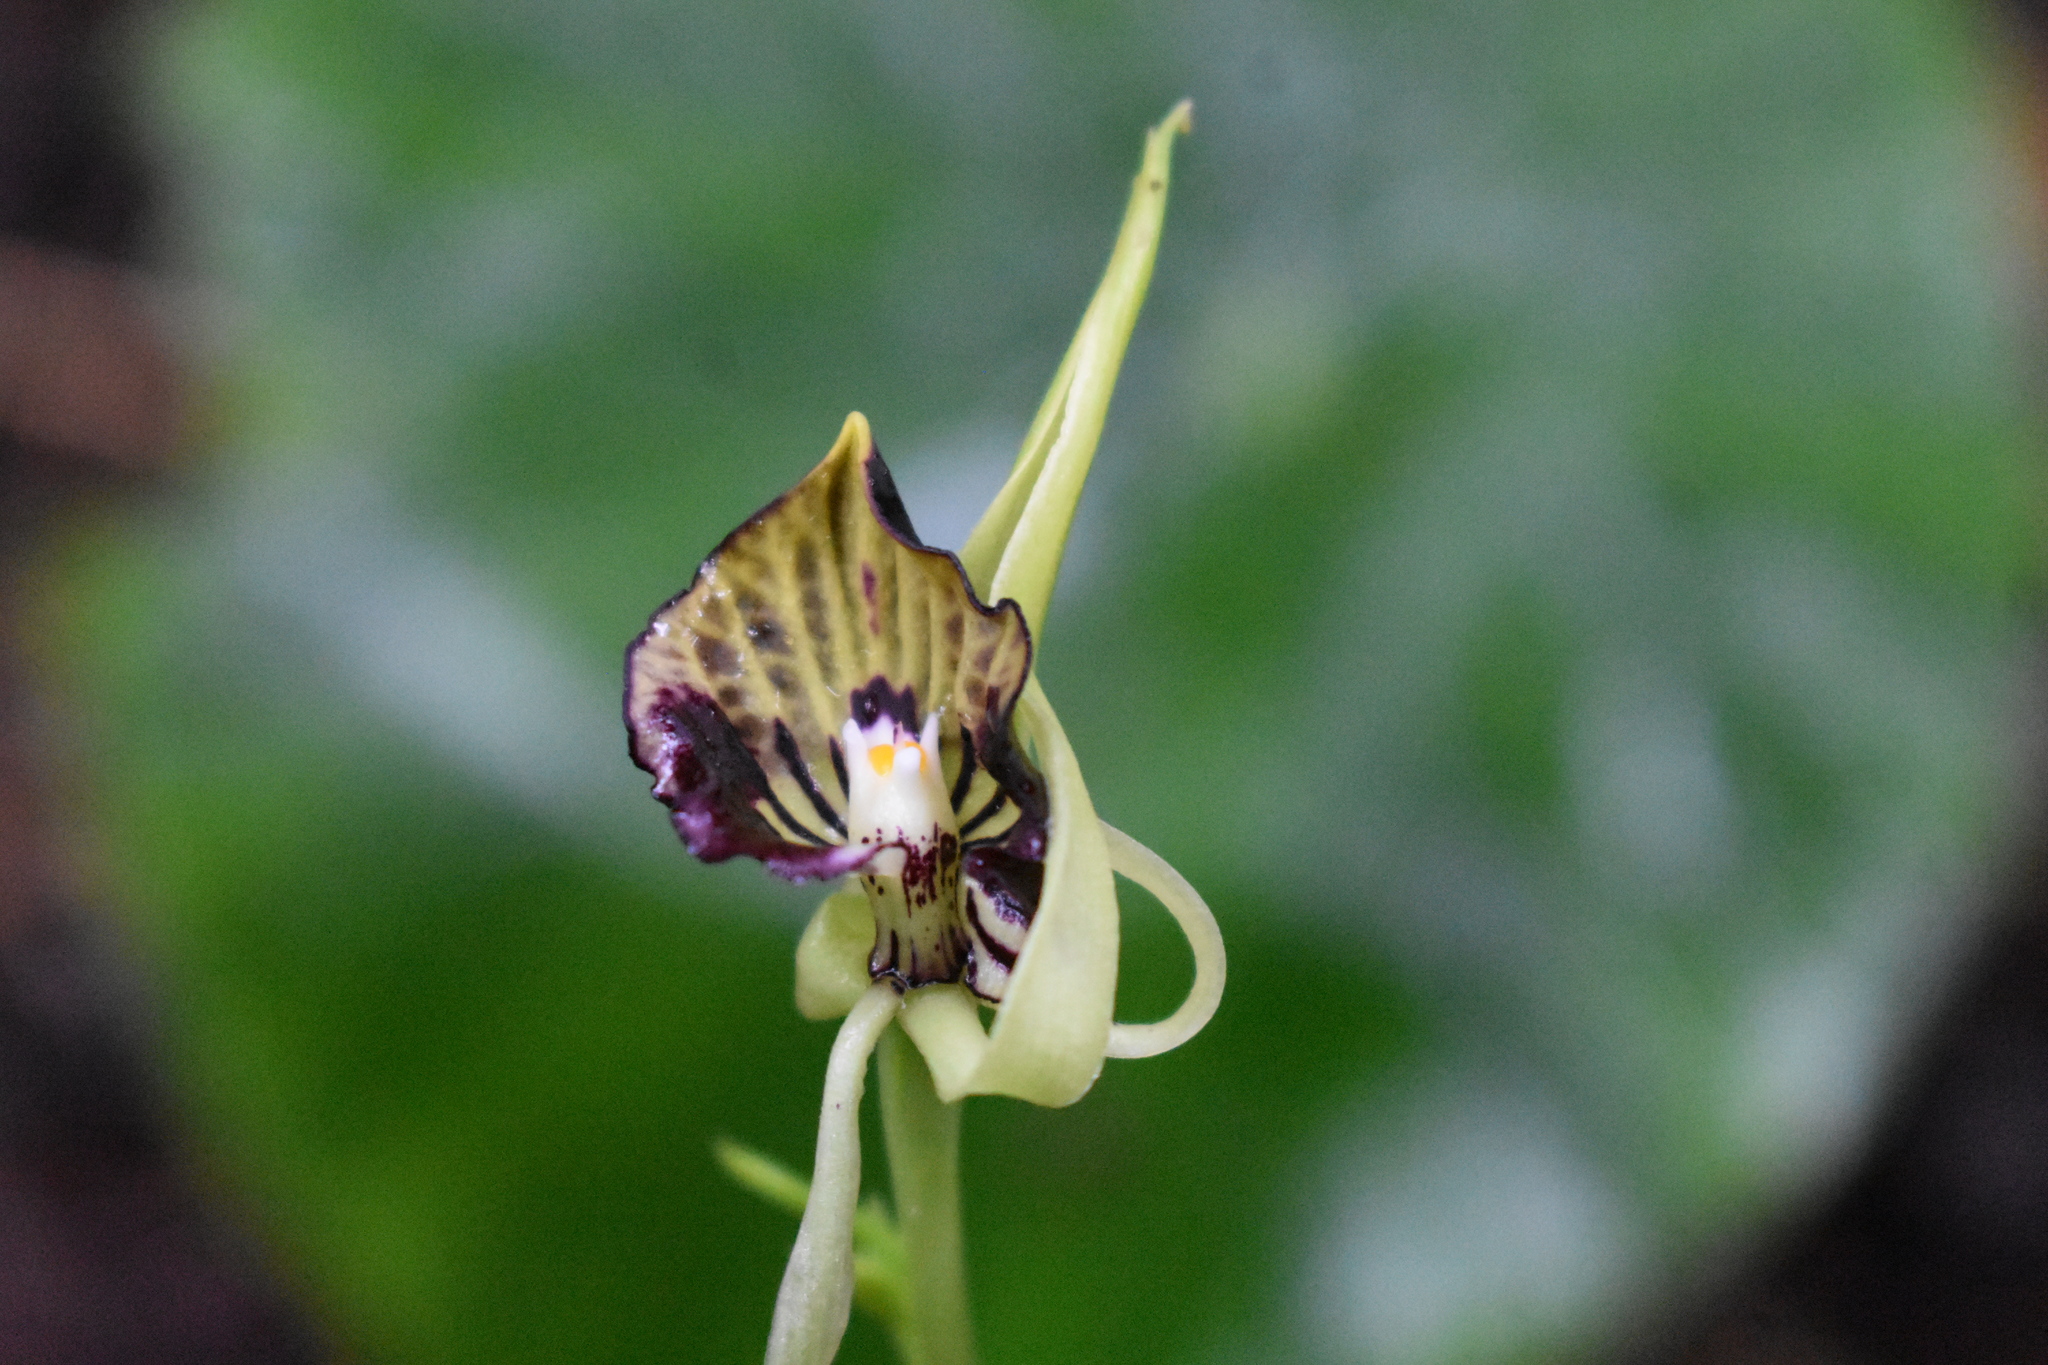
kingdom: Plantae
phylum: Tracheophyta
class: Liliopsida
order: Asparagales
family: Orchidaceae
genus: Prosthechea
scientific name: Prosthechea cochleata
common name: Clamshell orchid
